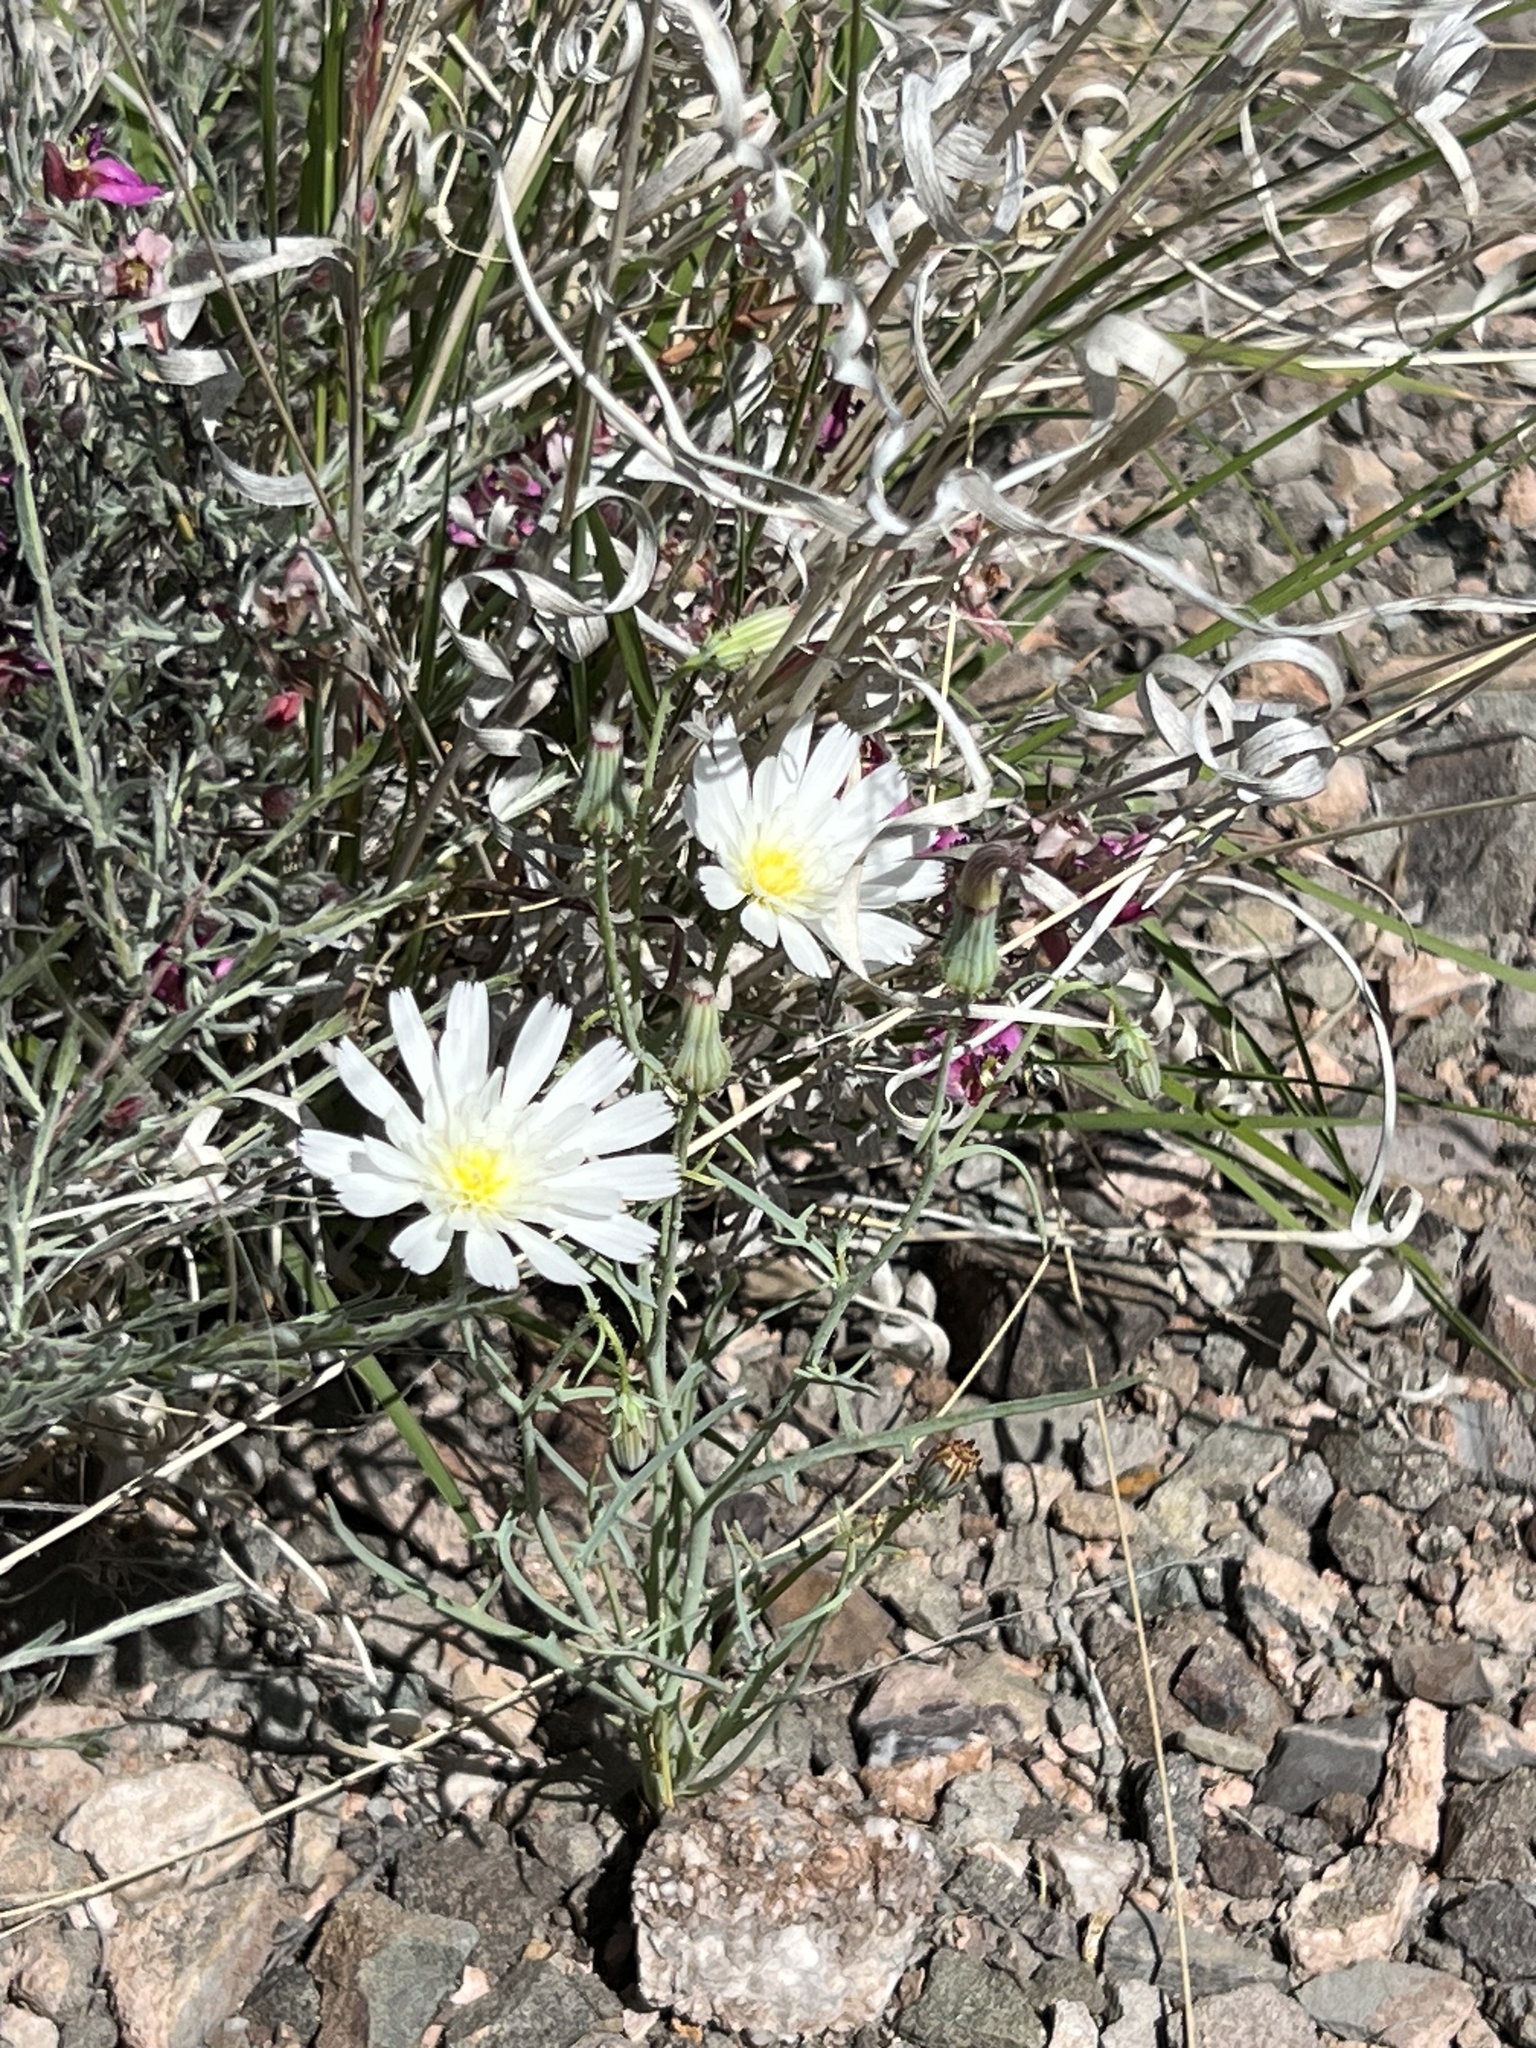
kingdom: Plantae
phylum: Tracheophyta
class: Magnoliopsida
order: Asterales
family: Asteraceae
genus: Calycoseris
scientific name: Calycoseris wrightii
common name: White tackstem
